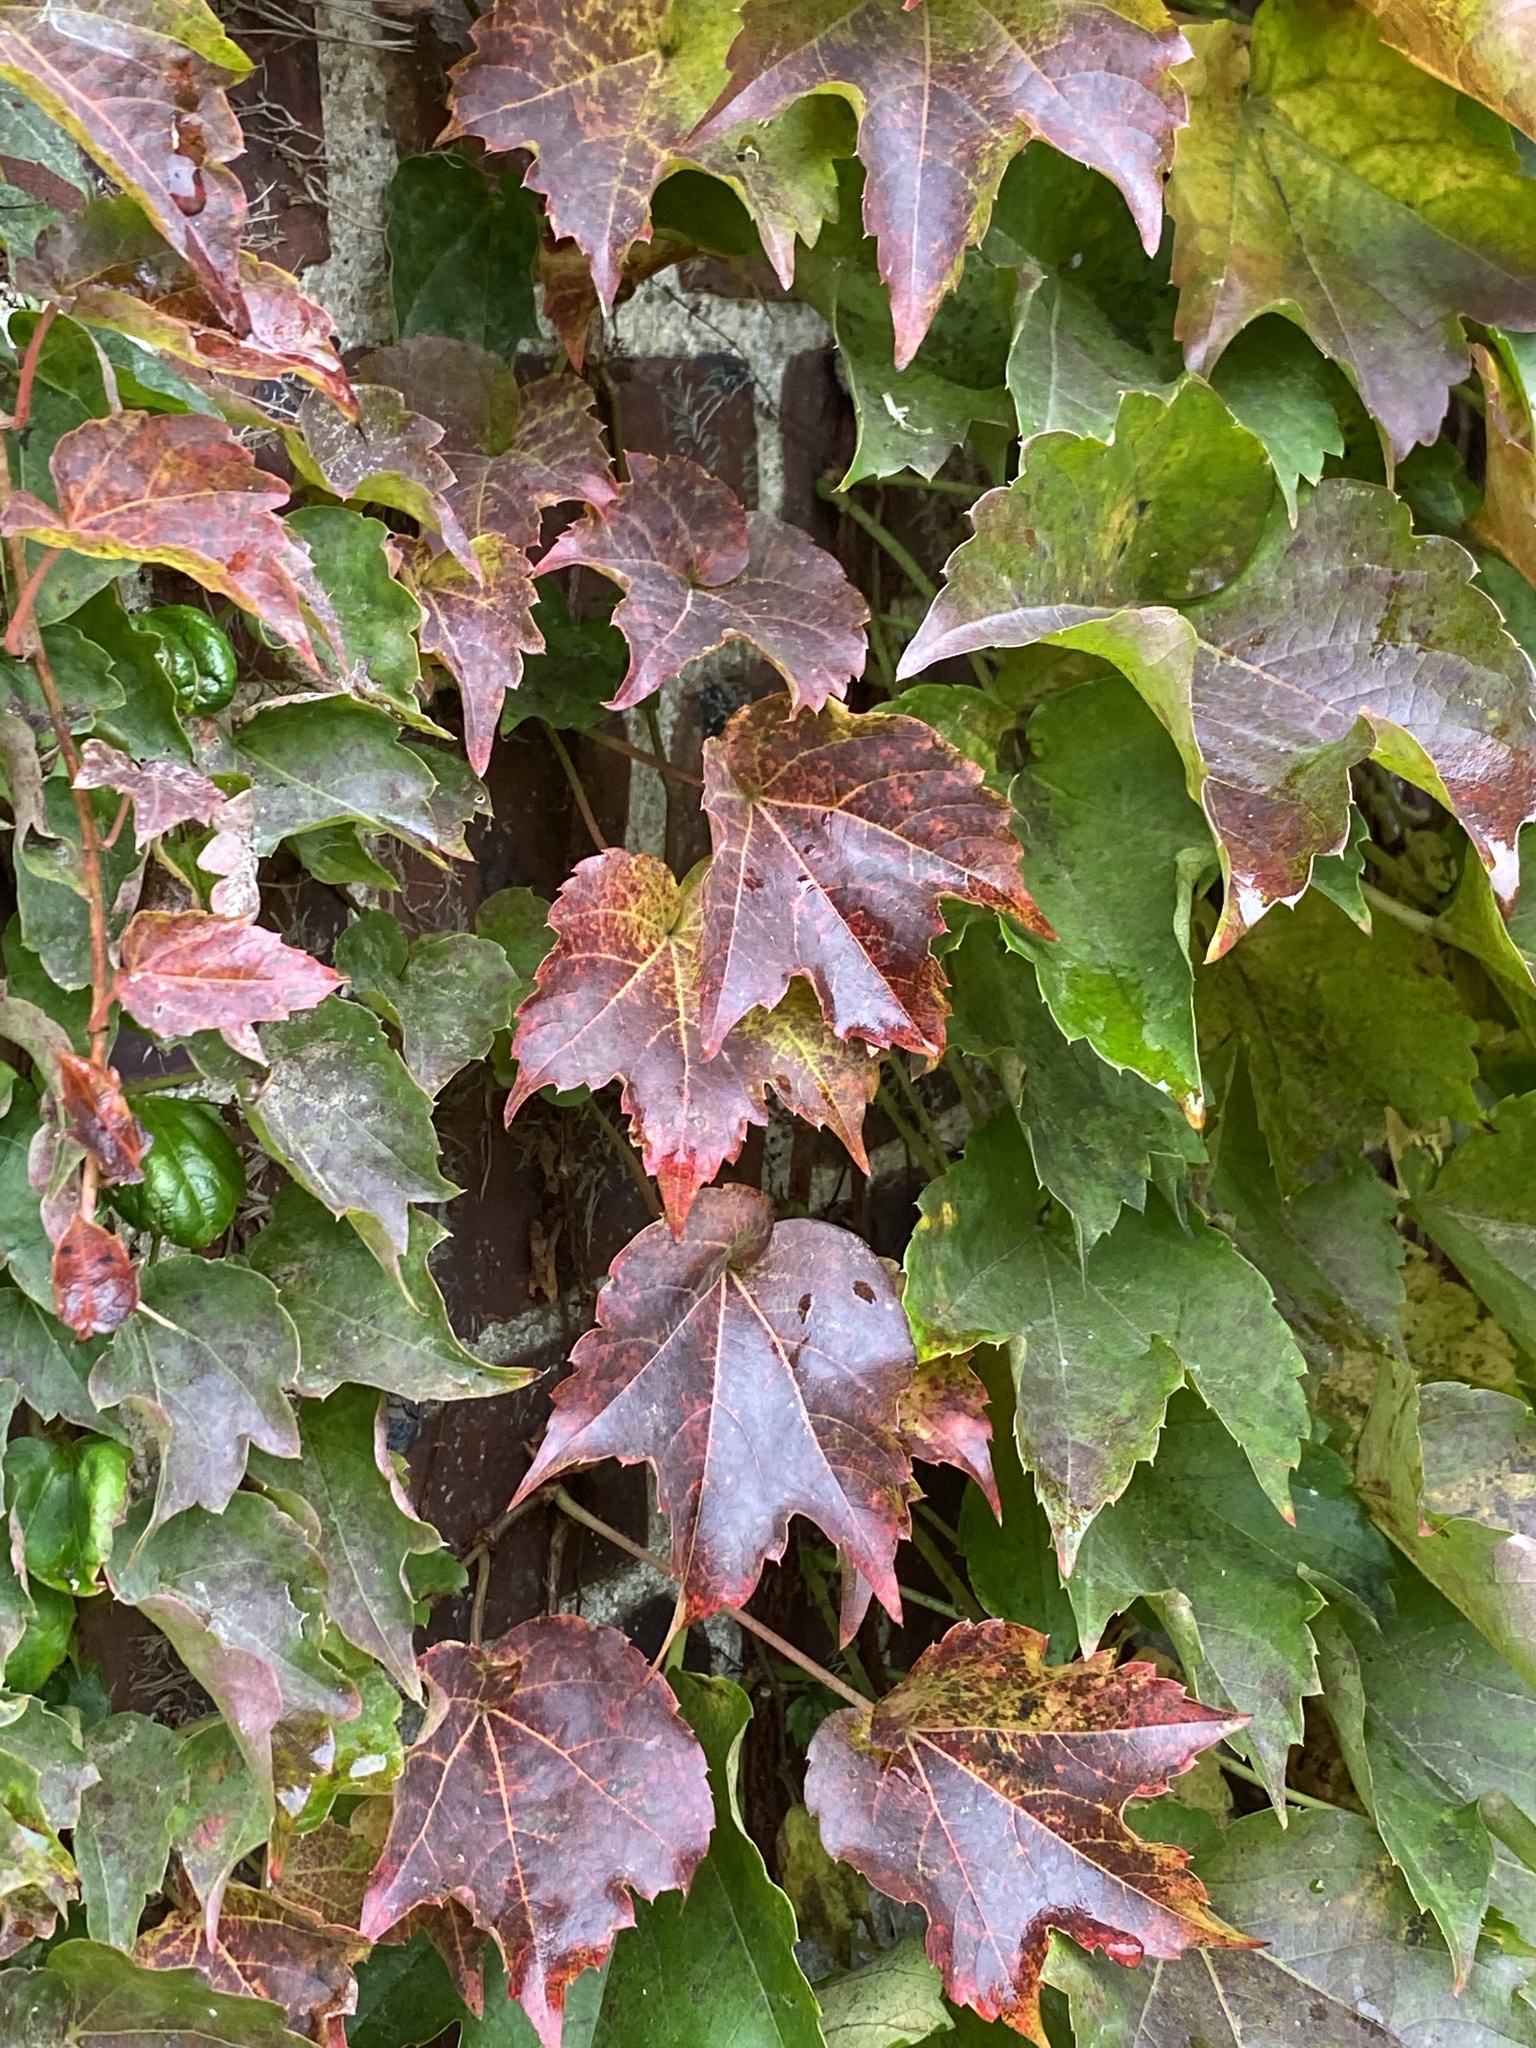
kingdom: Plantae
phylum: Tracheophyta
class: Magnoliopsida
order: Vitales
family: Vitaceae
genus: Parthenocissus
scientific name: Parthenocissus tricuspidata
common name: Boston ivy
